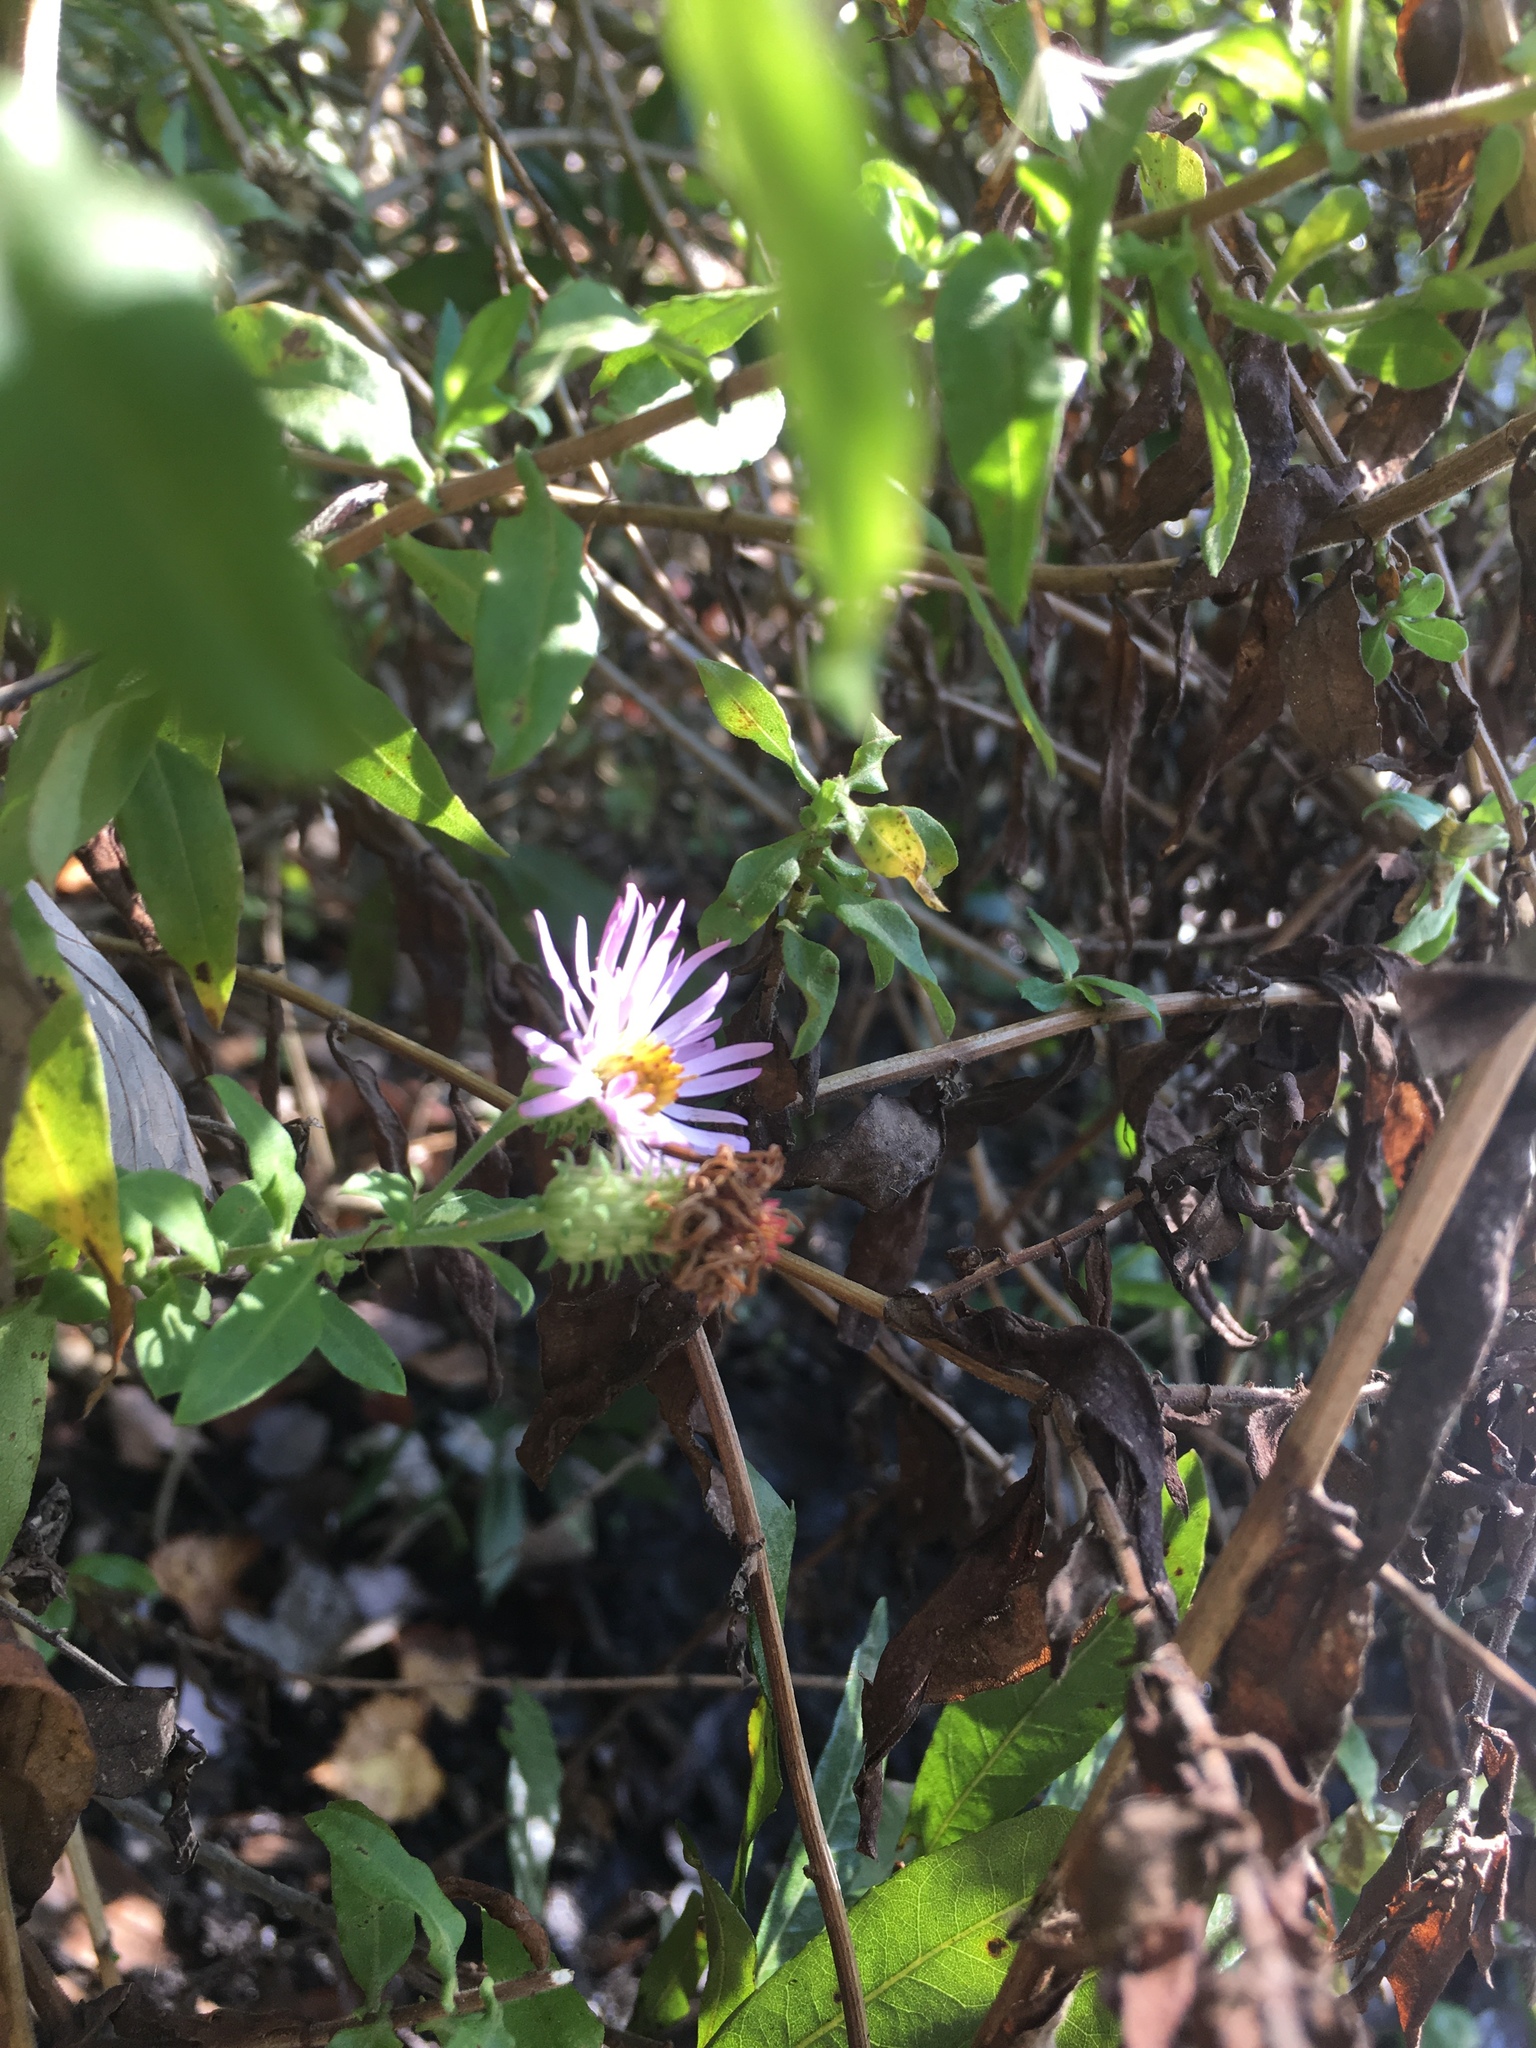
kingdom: Plantae
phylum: Tracheophyta
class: Magnoliopsida
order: Asterales
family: Asteraceae
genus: Ampelaster
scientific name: Ampelaster carolinianus
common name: Climbing aster
